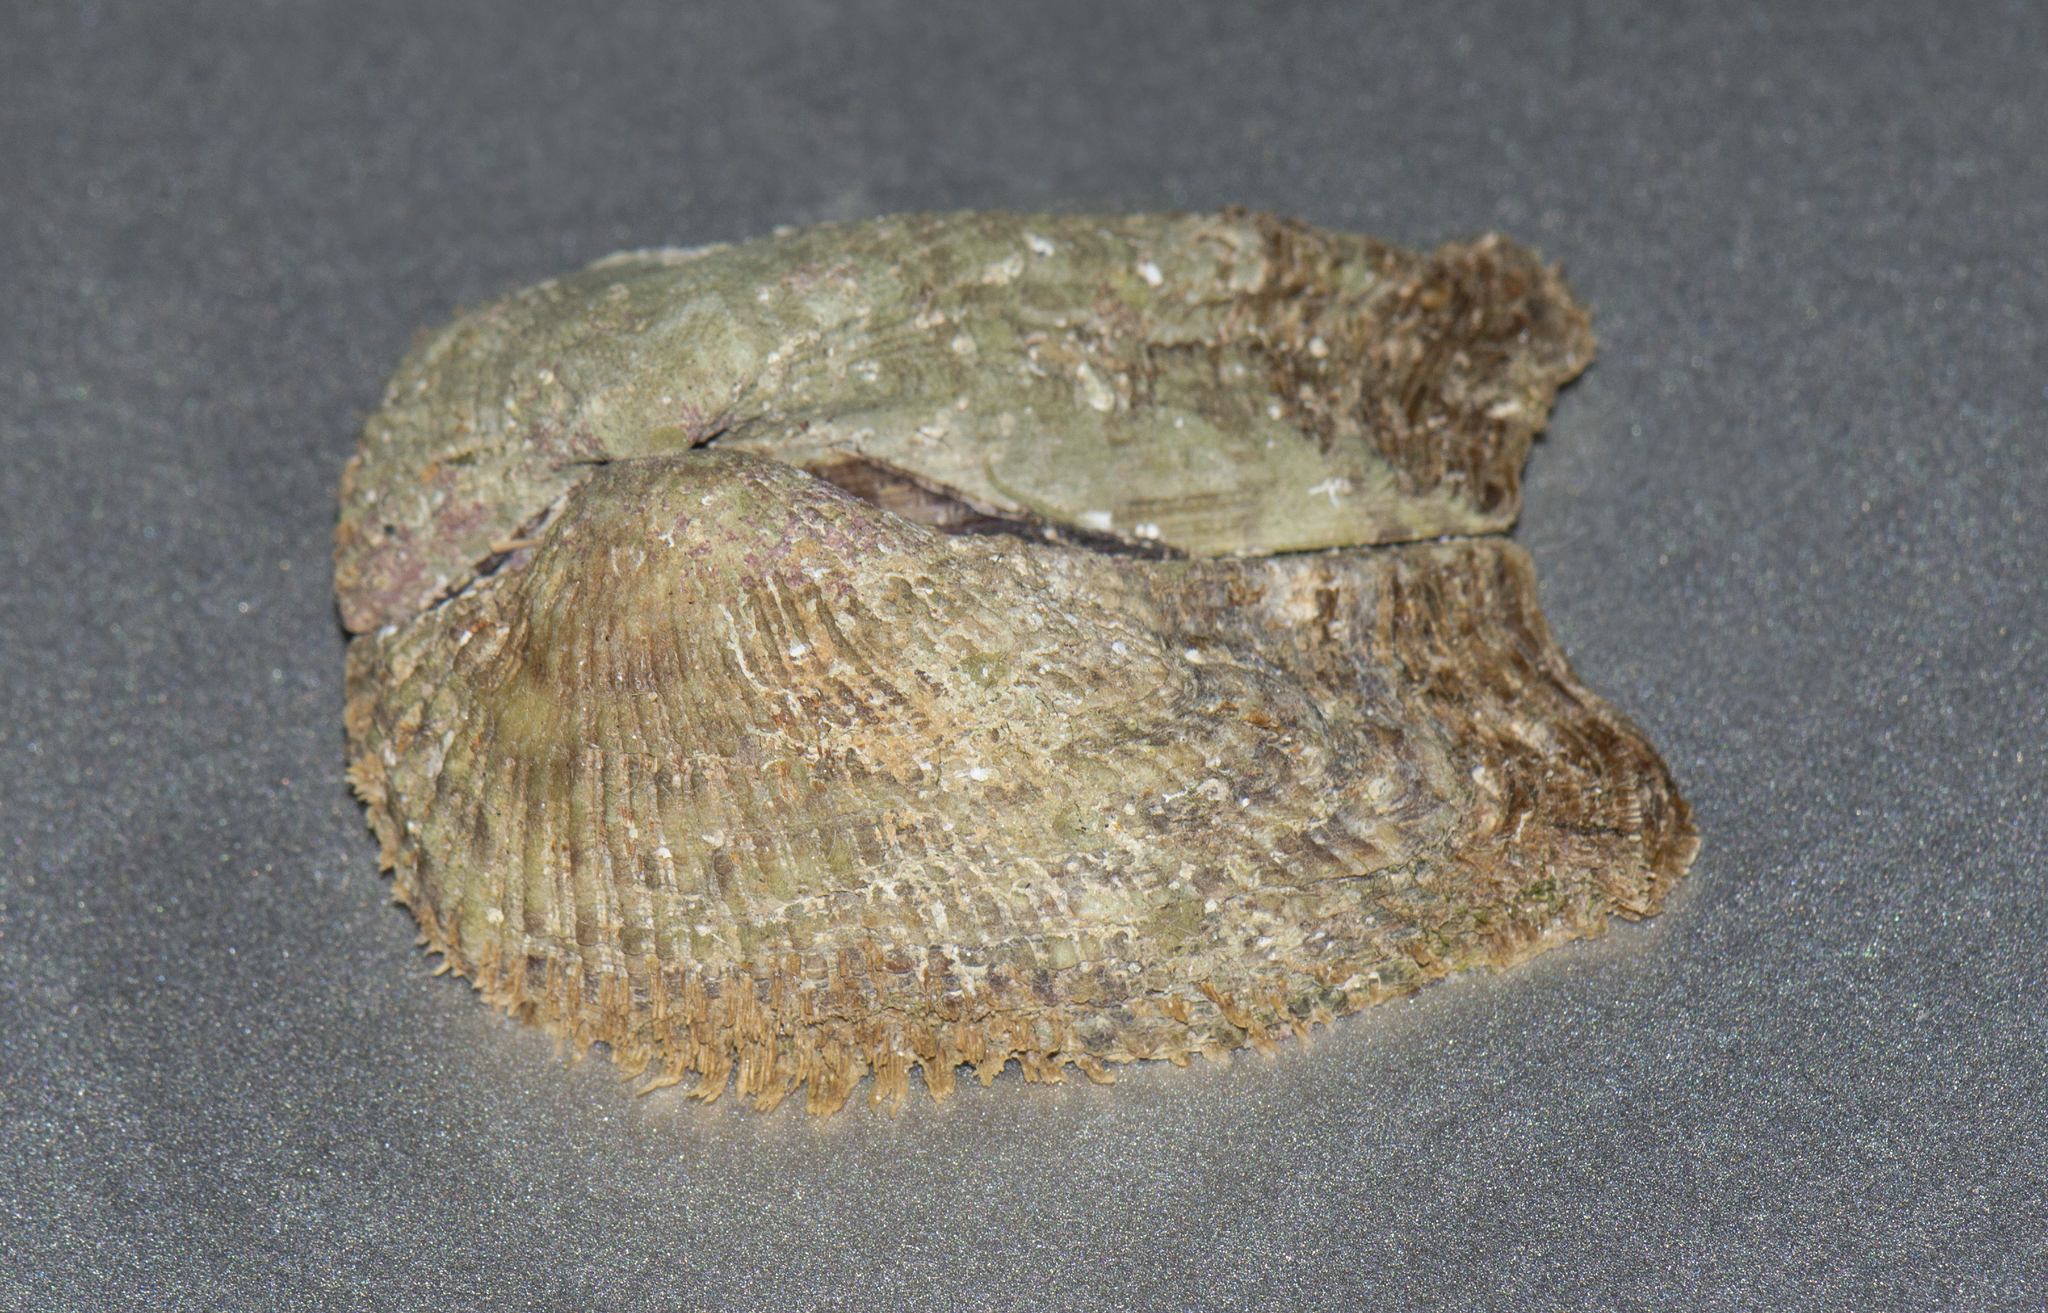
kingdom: Animalia
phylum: Mollusca
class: Bivalvia
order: Arcida
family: Arcidae
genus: Arca
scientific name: Arca noae
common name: Noah's arch
